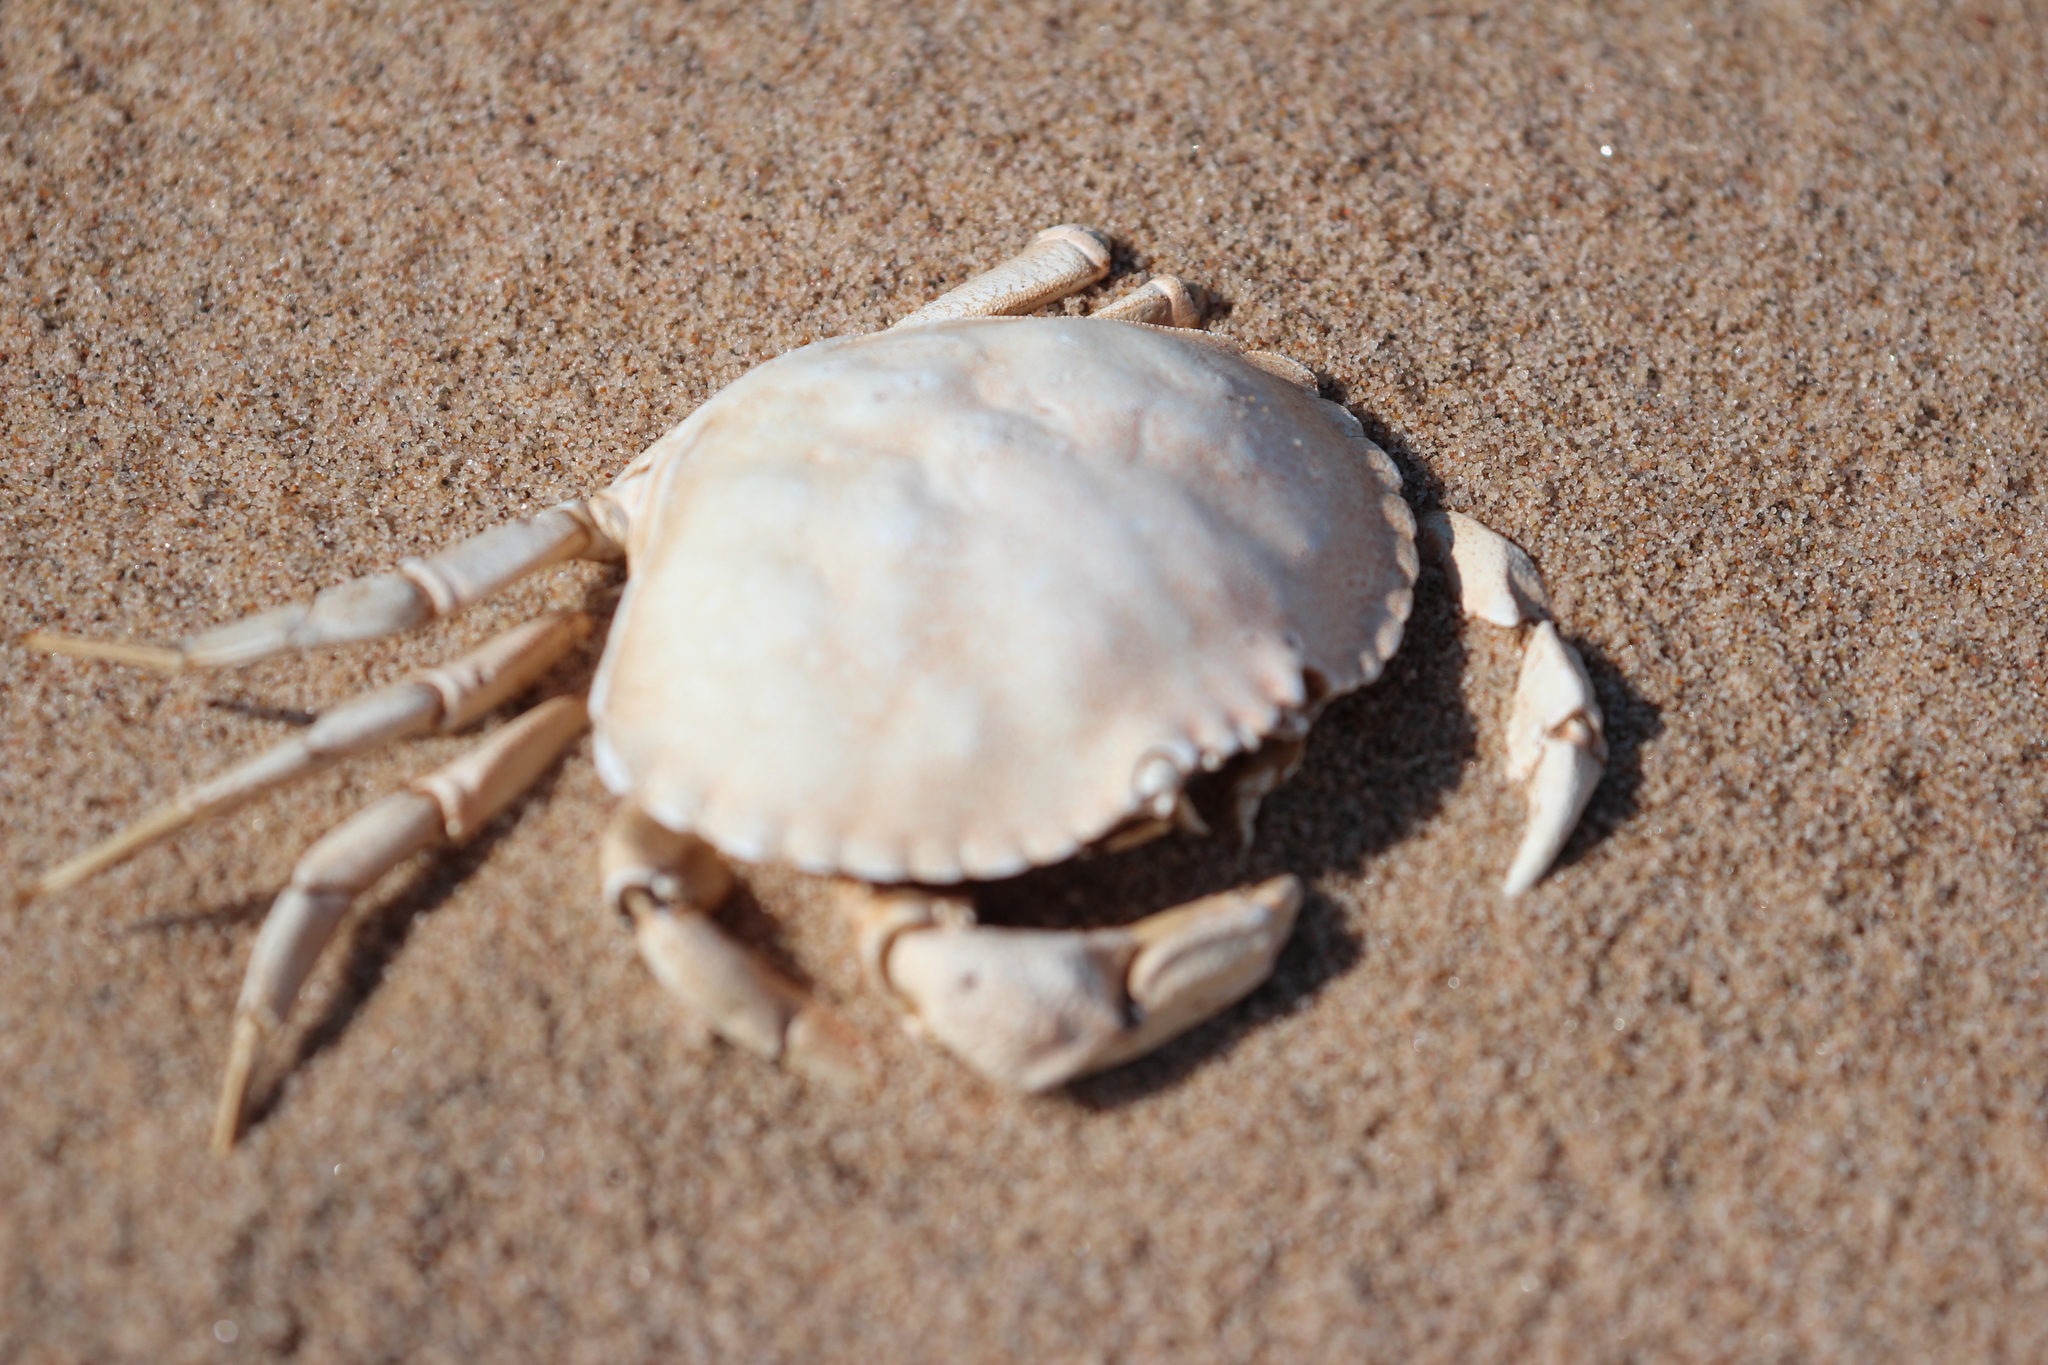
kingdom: Animalia
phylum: Arthropoda
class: Malacostraca
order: Decapoda
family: Cancridae
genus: Cancer
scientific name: Cancer irroratus
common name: Atlantic rock crab
